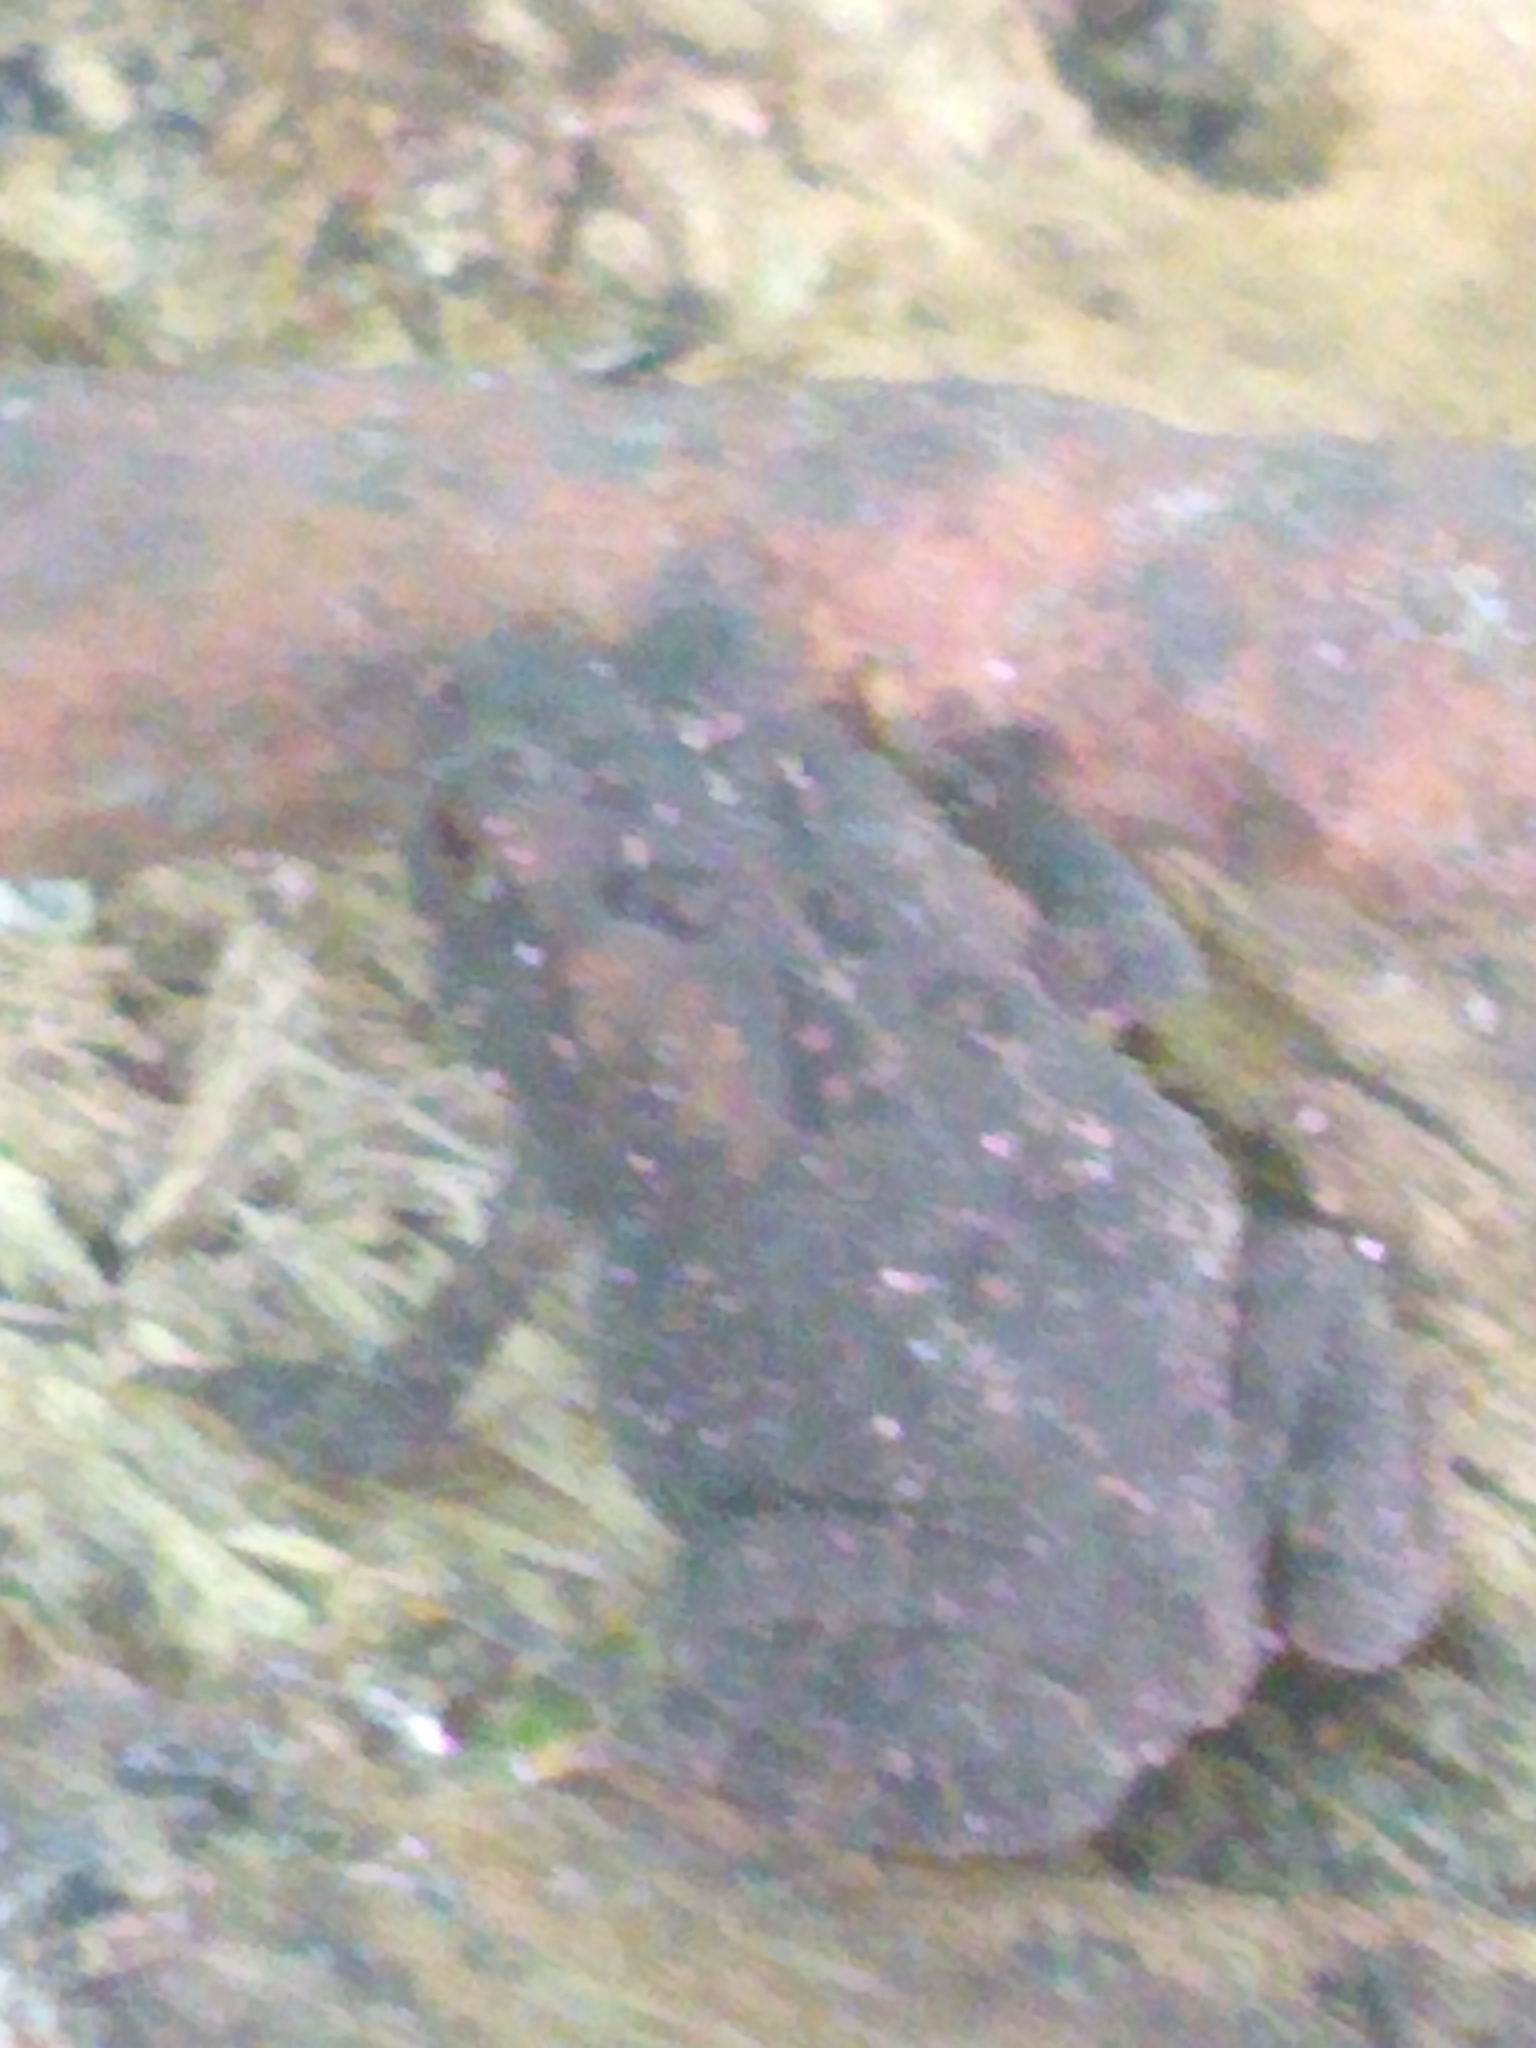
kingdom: Animalia
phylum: Chordata
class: Amphibia
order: Anura
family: Bufonidae
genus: Anaxyrus
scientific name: Anaxyrus americanus
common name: American toad
